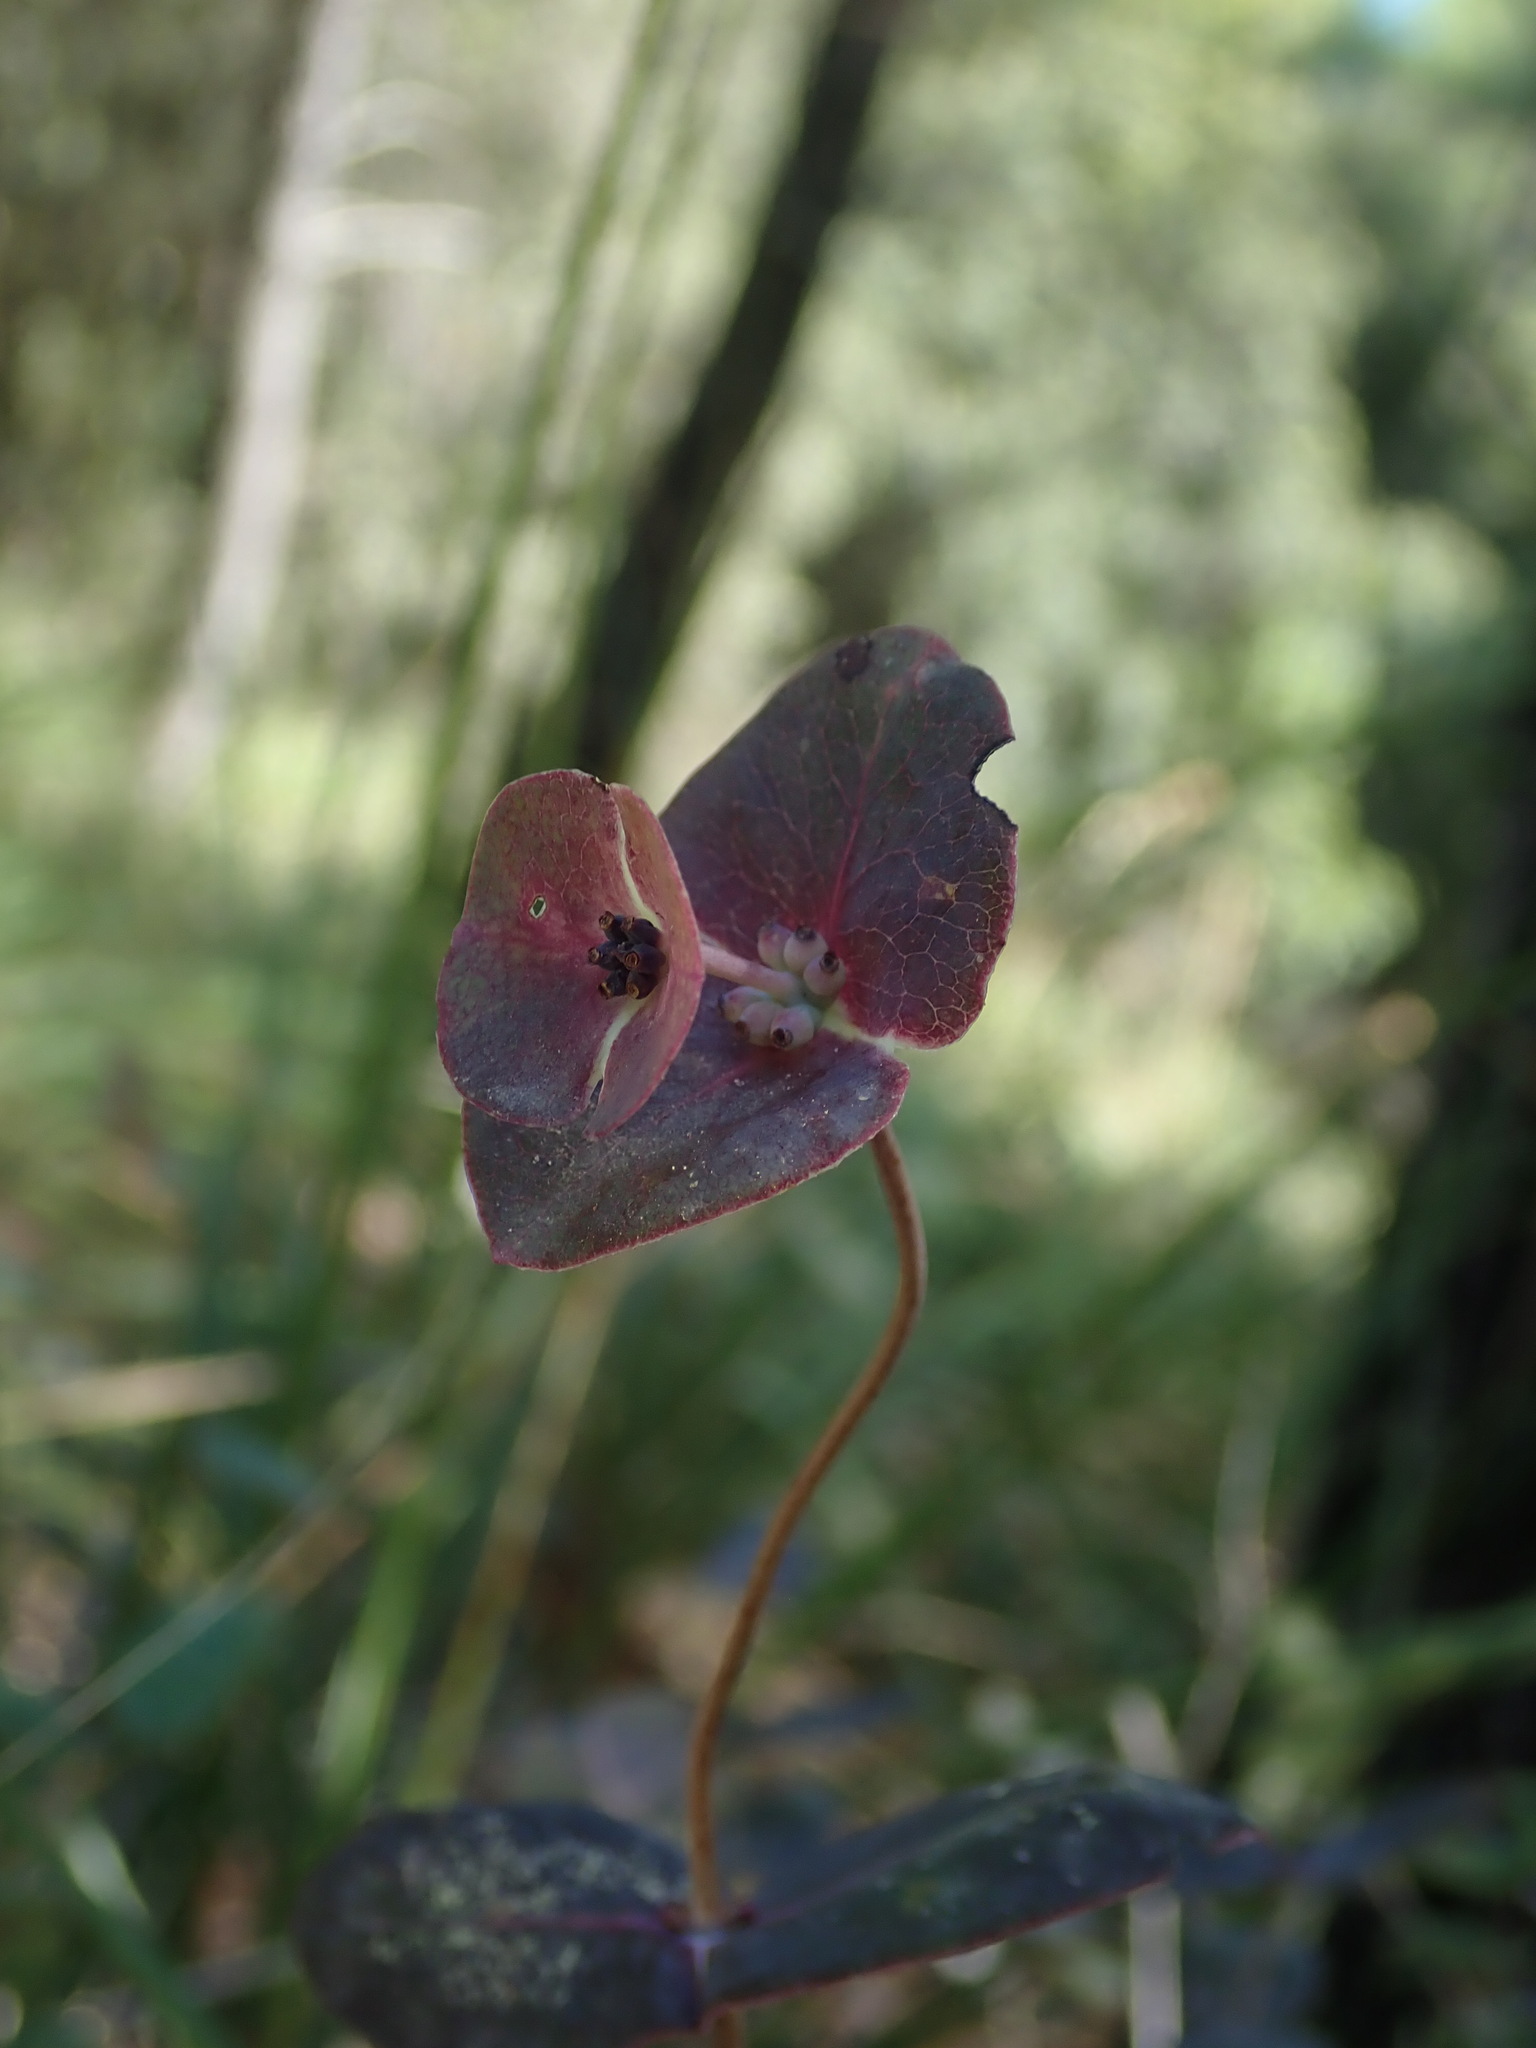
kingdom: Plantae
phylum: Tracheophyta
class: Magnoliopsida
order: Dipsacales
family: Caprifoliaceae
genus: Lonicera
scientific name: Lonicera implexa
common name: Minorca honeysuckle
